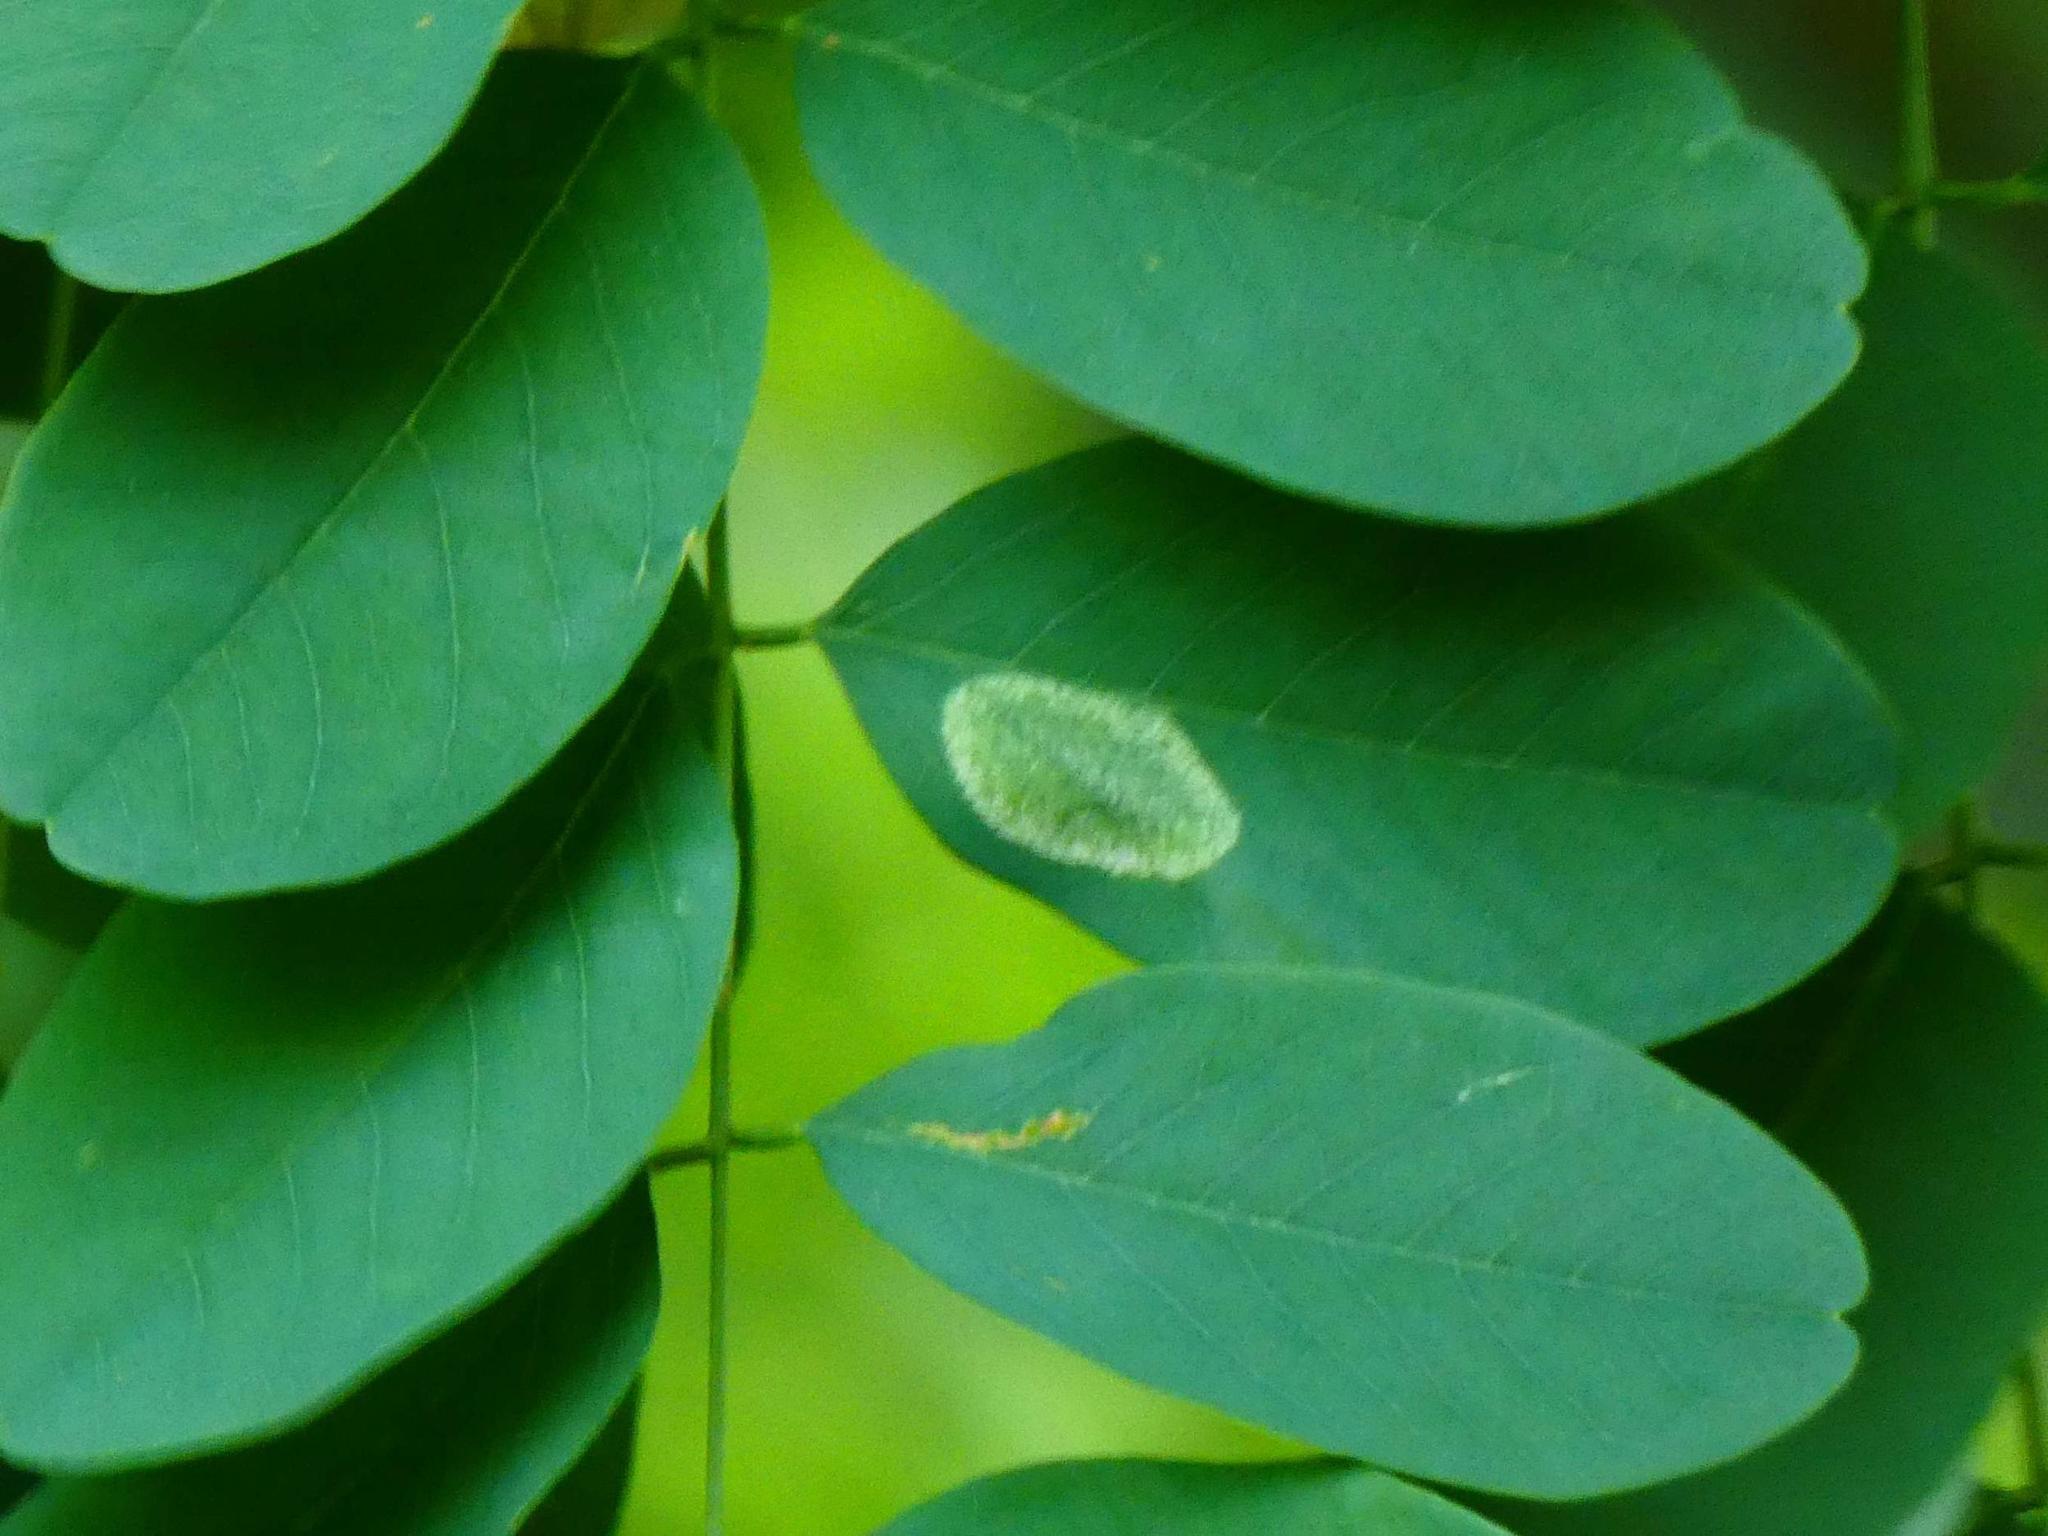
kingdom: Animalia
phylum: Arthropoda
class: Insecta
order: Lepidoptera
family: Gracillariidae
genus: Macrosaccus
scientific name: Macrosaccus robiniella
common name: Leaf blotch miner moth
